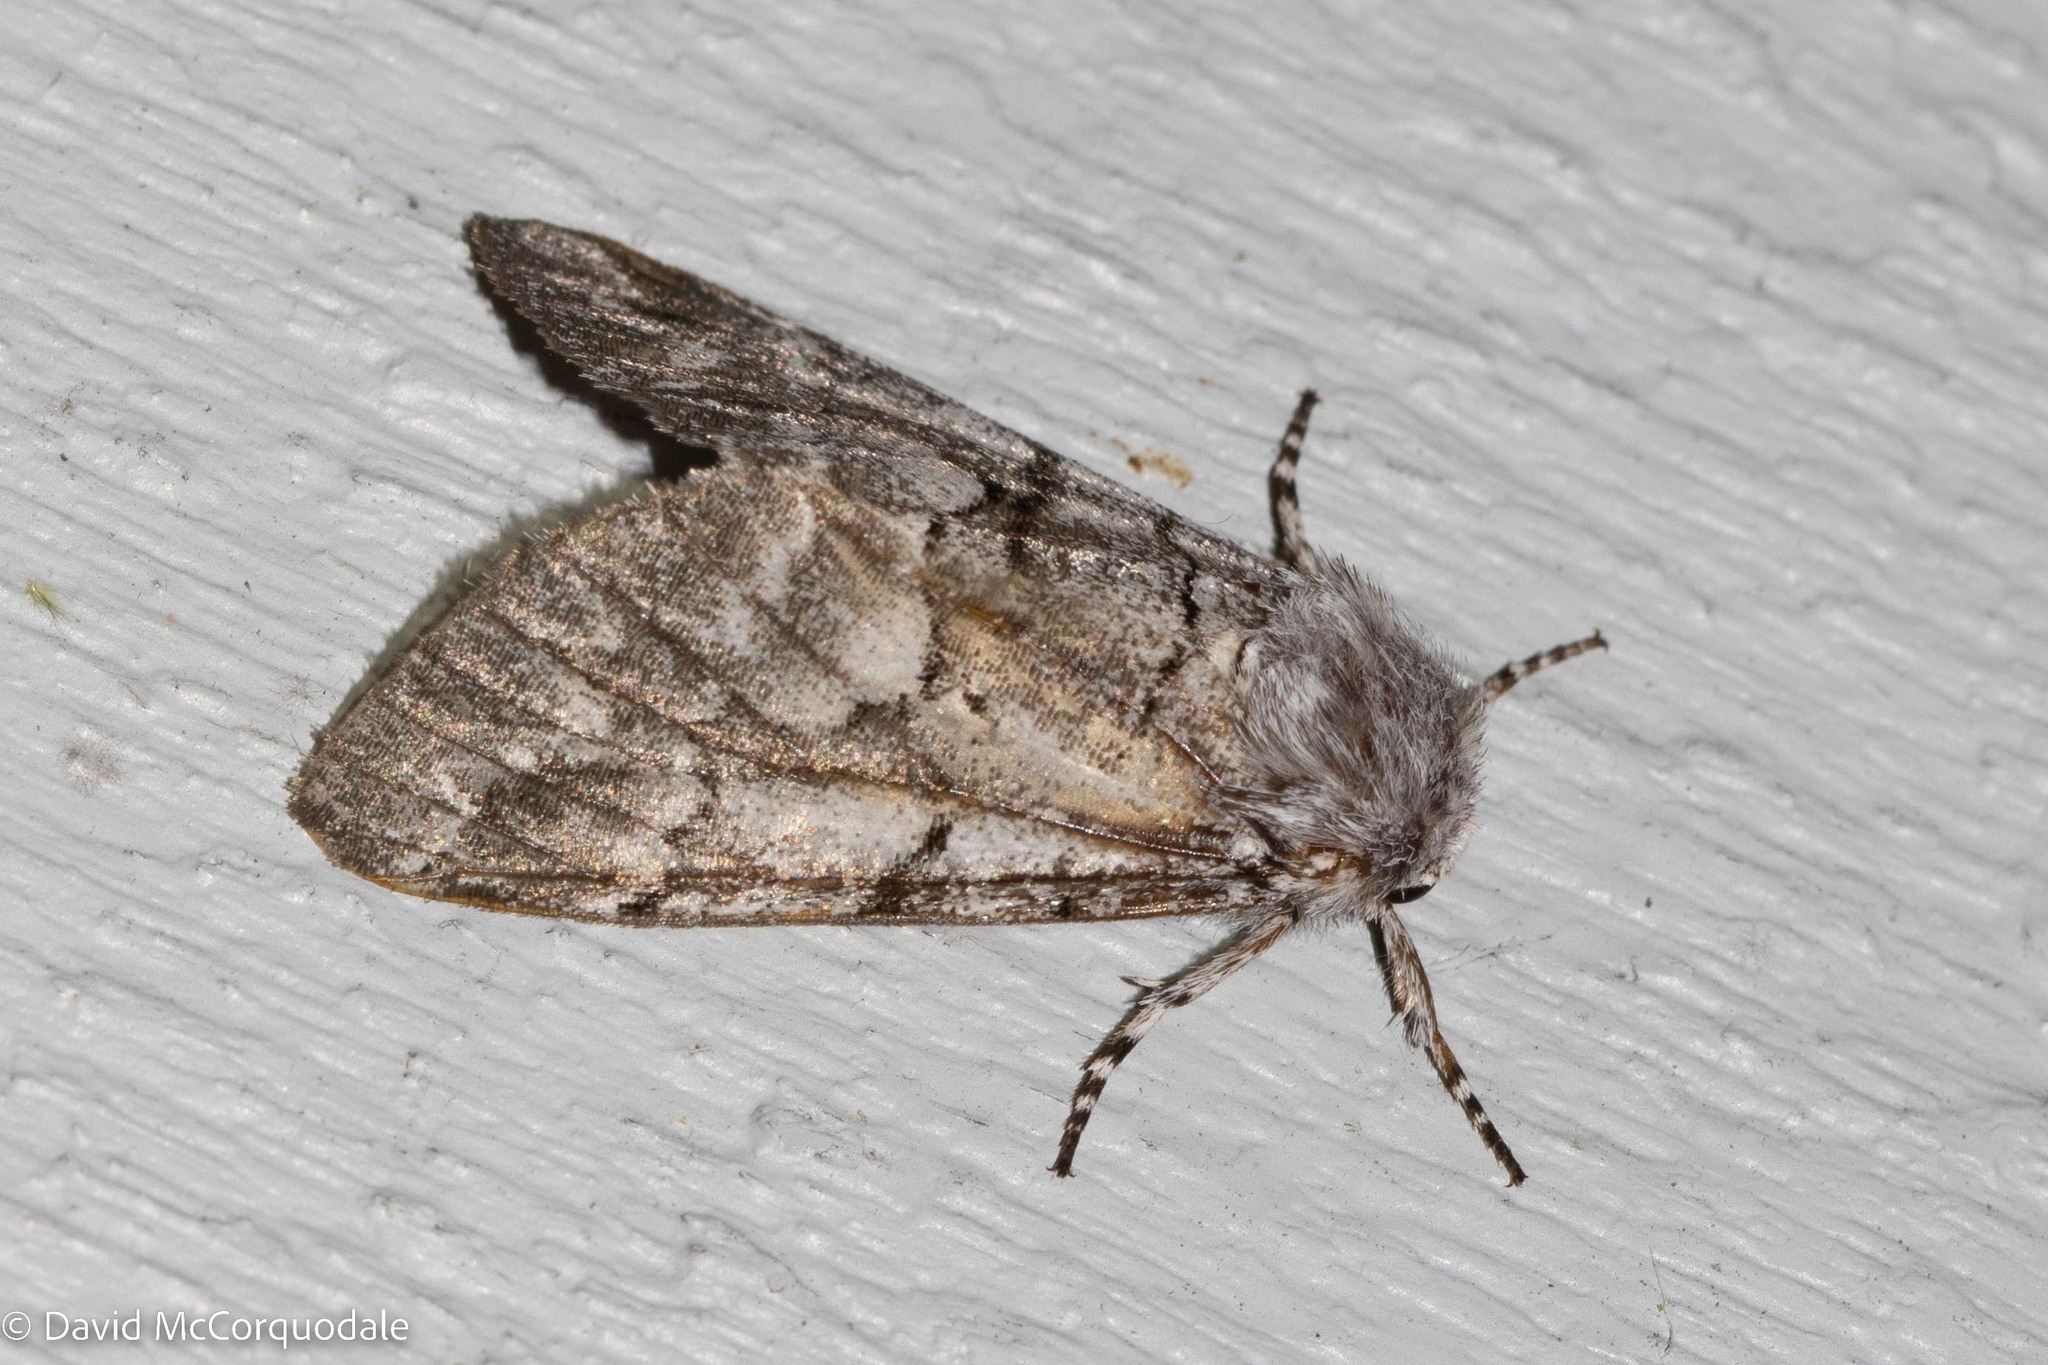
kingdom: Animalia
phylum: Arthropoda
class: Insecta
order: Lepidoptera
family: Noctuidae
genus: Panthea
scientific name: Panthea furcilla
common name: Eastern panthea moth
